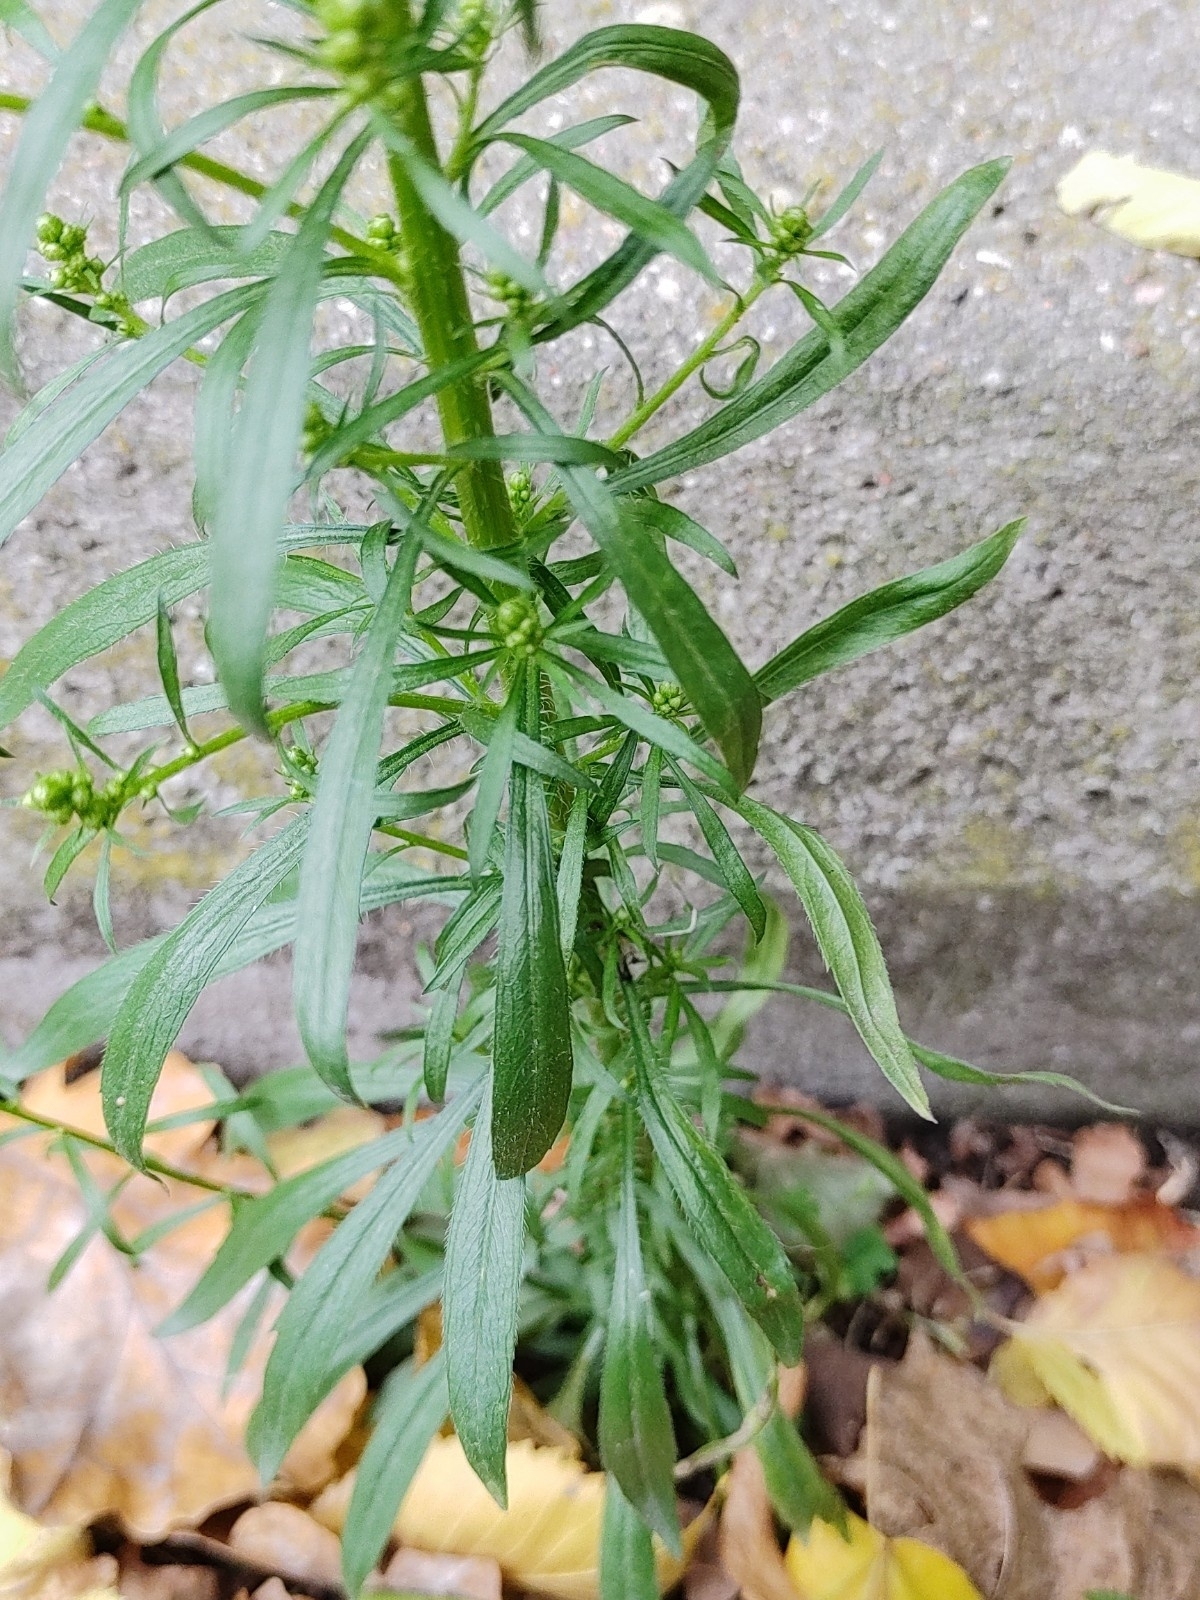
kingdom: Plantae
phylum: Tracheophyta
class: Magnoliopsida
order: Asterales
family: Asteraceae
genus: Erigeron
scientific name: Erigeron canadensis
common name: Canadian fleabane
